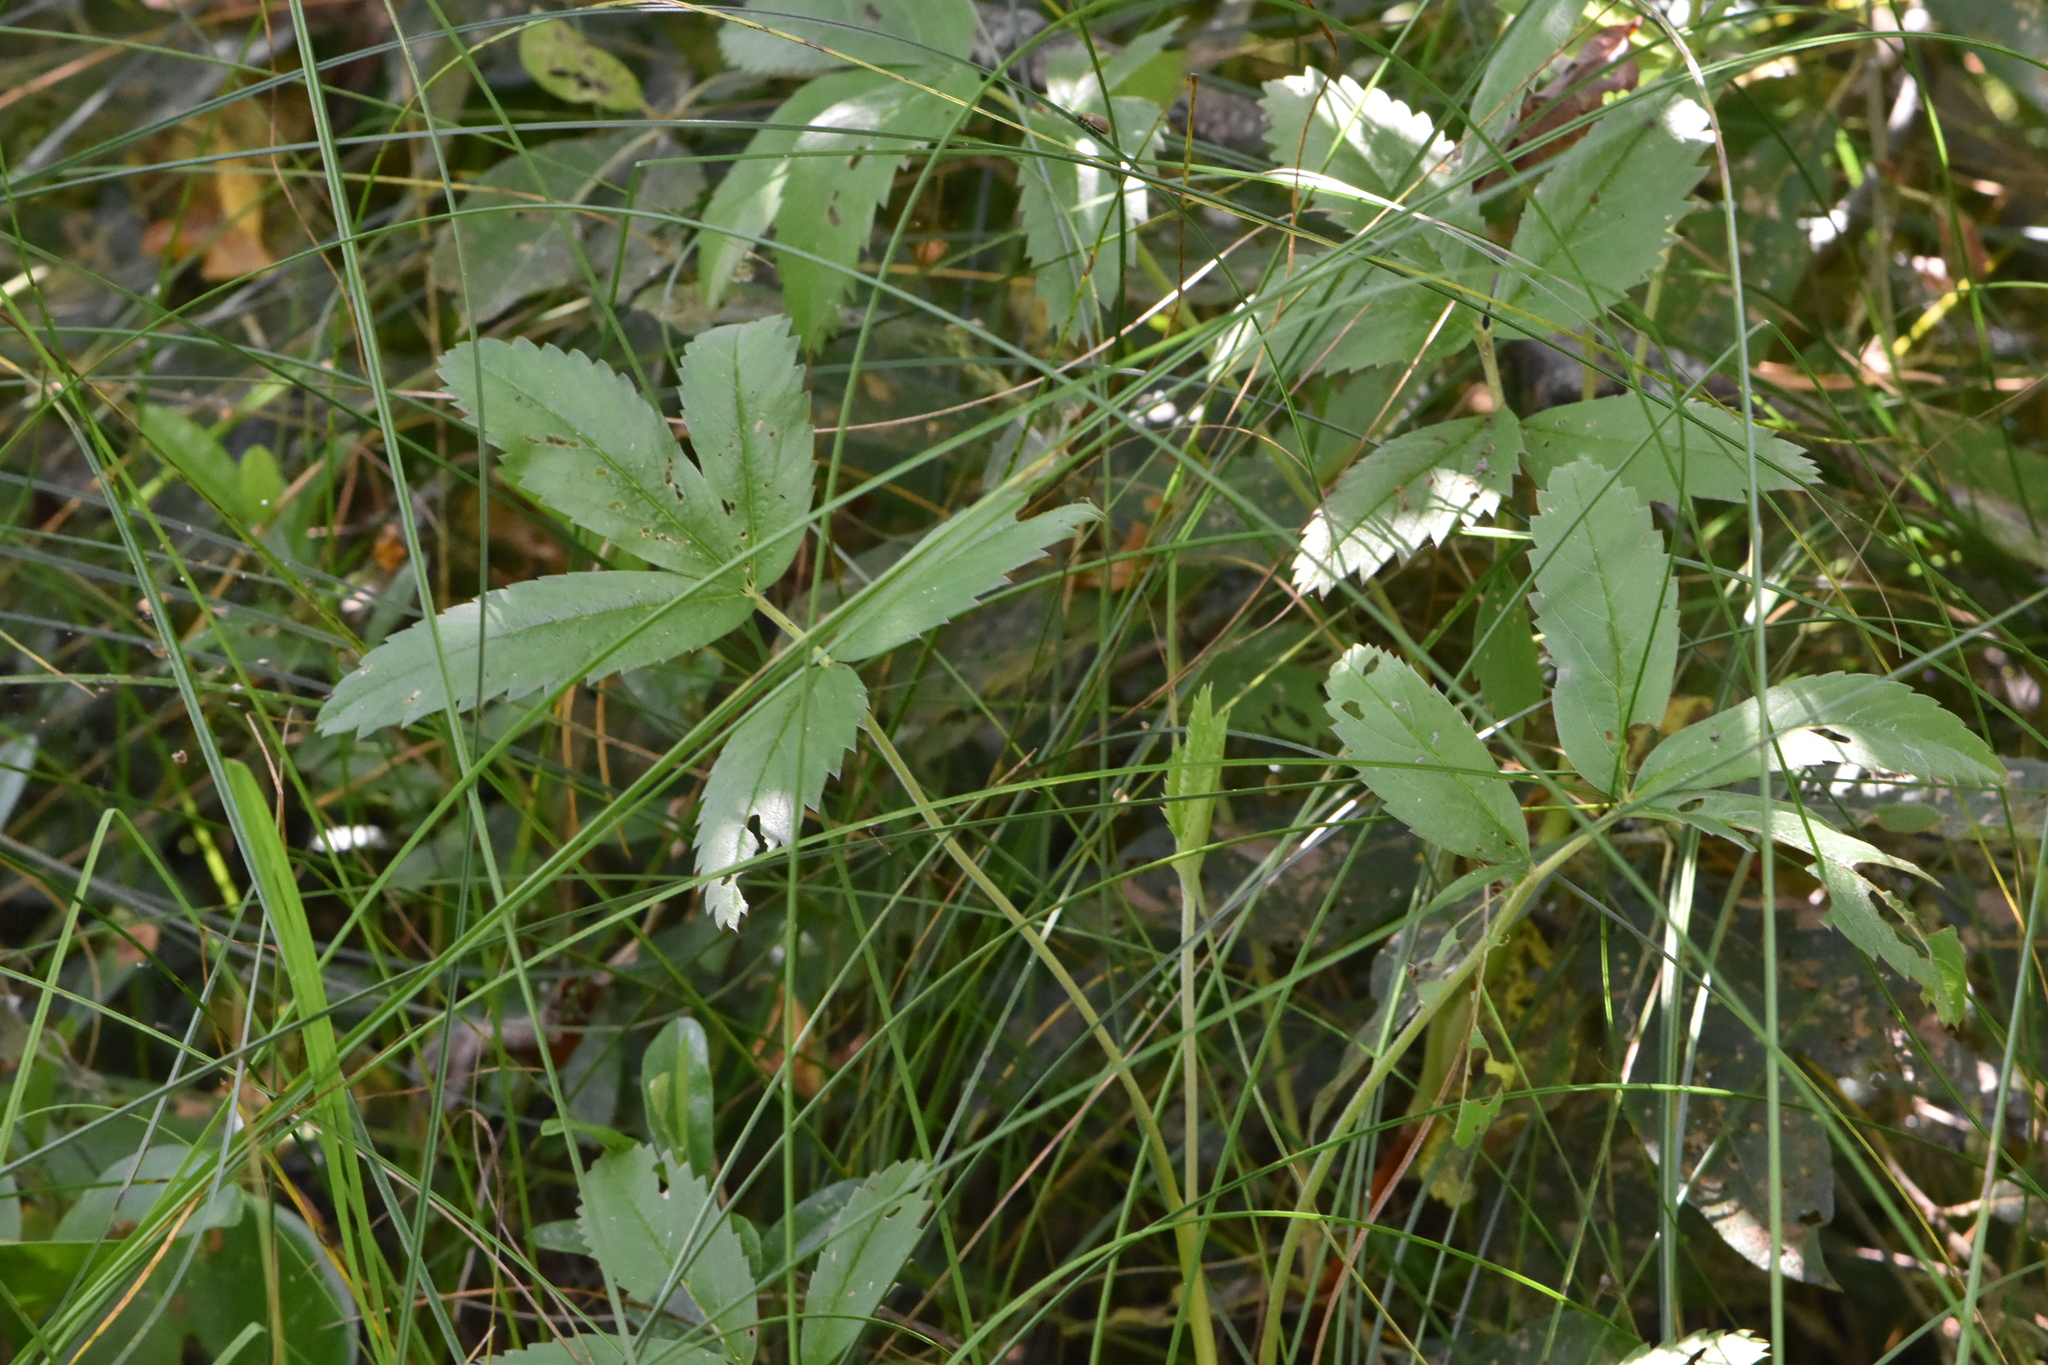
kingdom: Plantae
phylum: Tracheophyta
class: Magnoliopsida
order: Rosales
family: Rosaceae
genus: Comarum
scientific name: Comarum palustre
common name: Marsh cinquefoil
